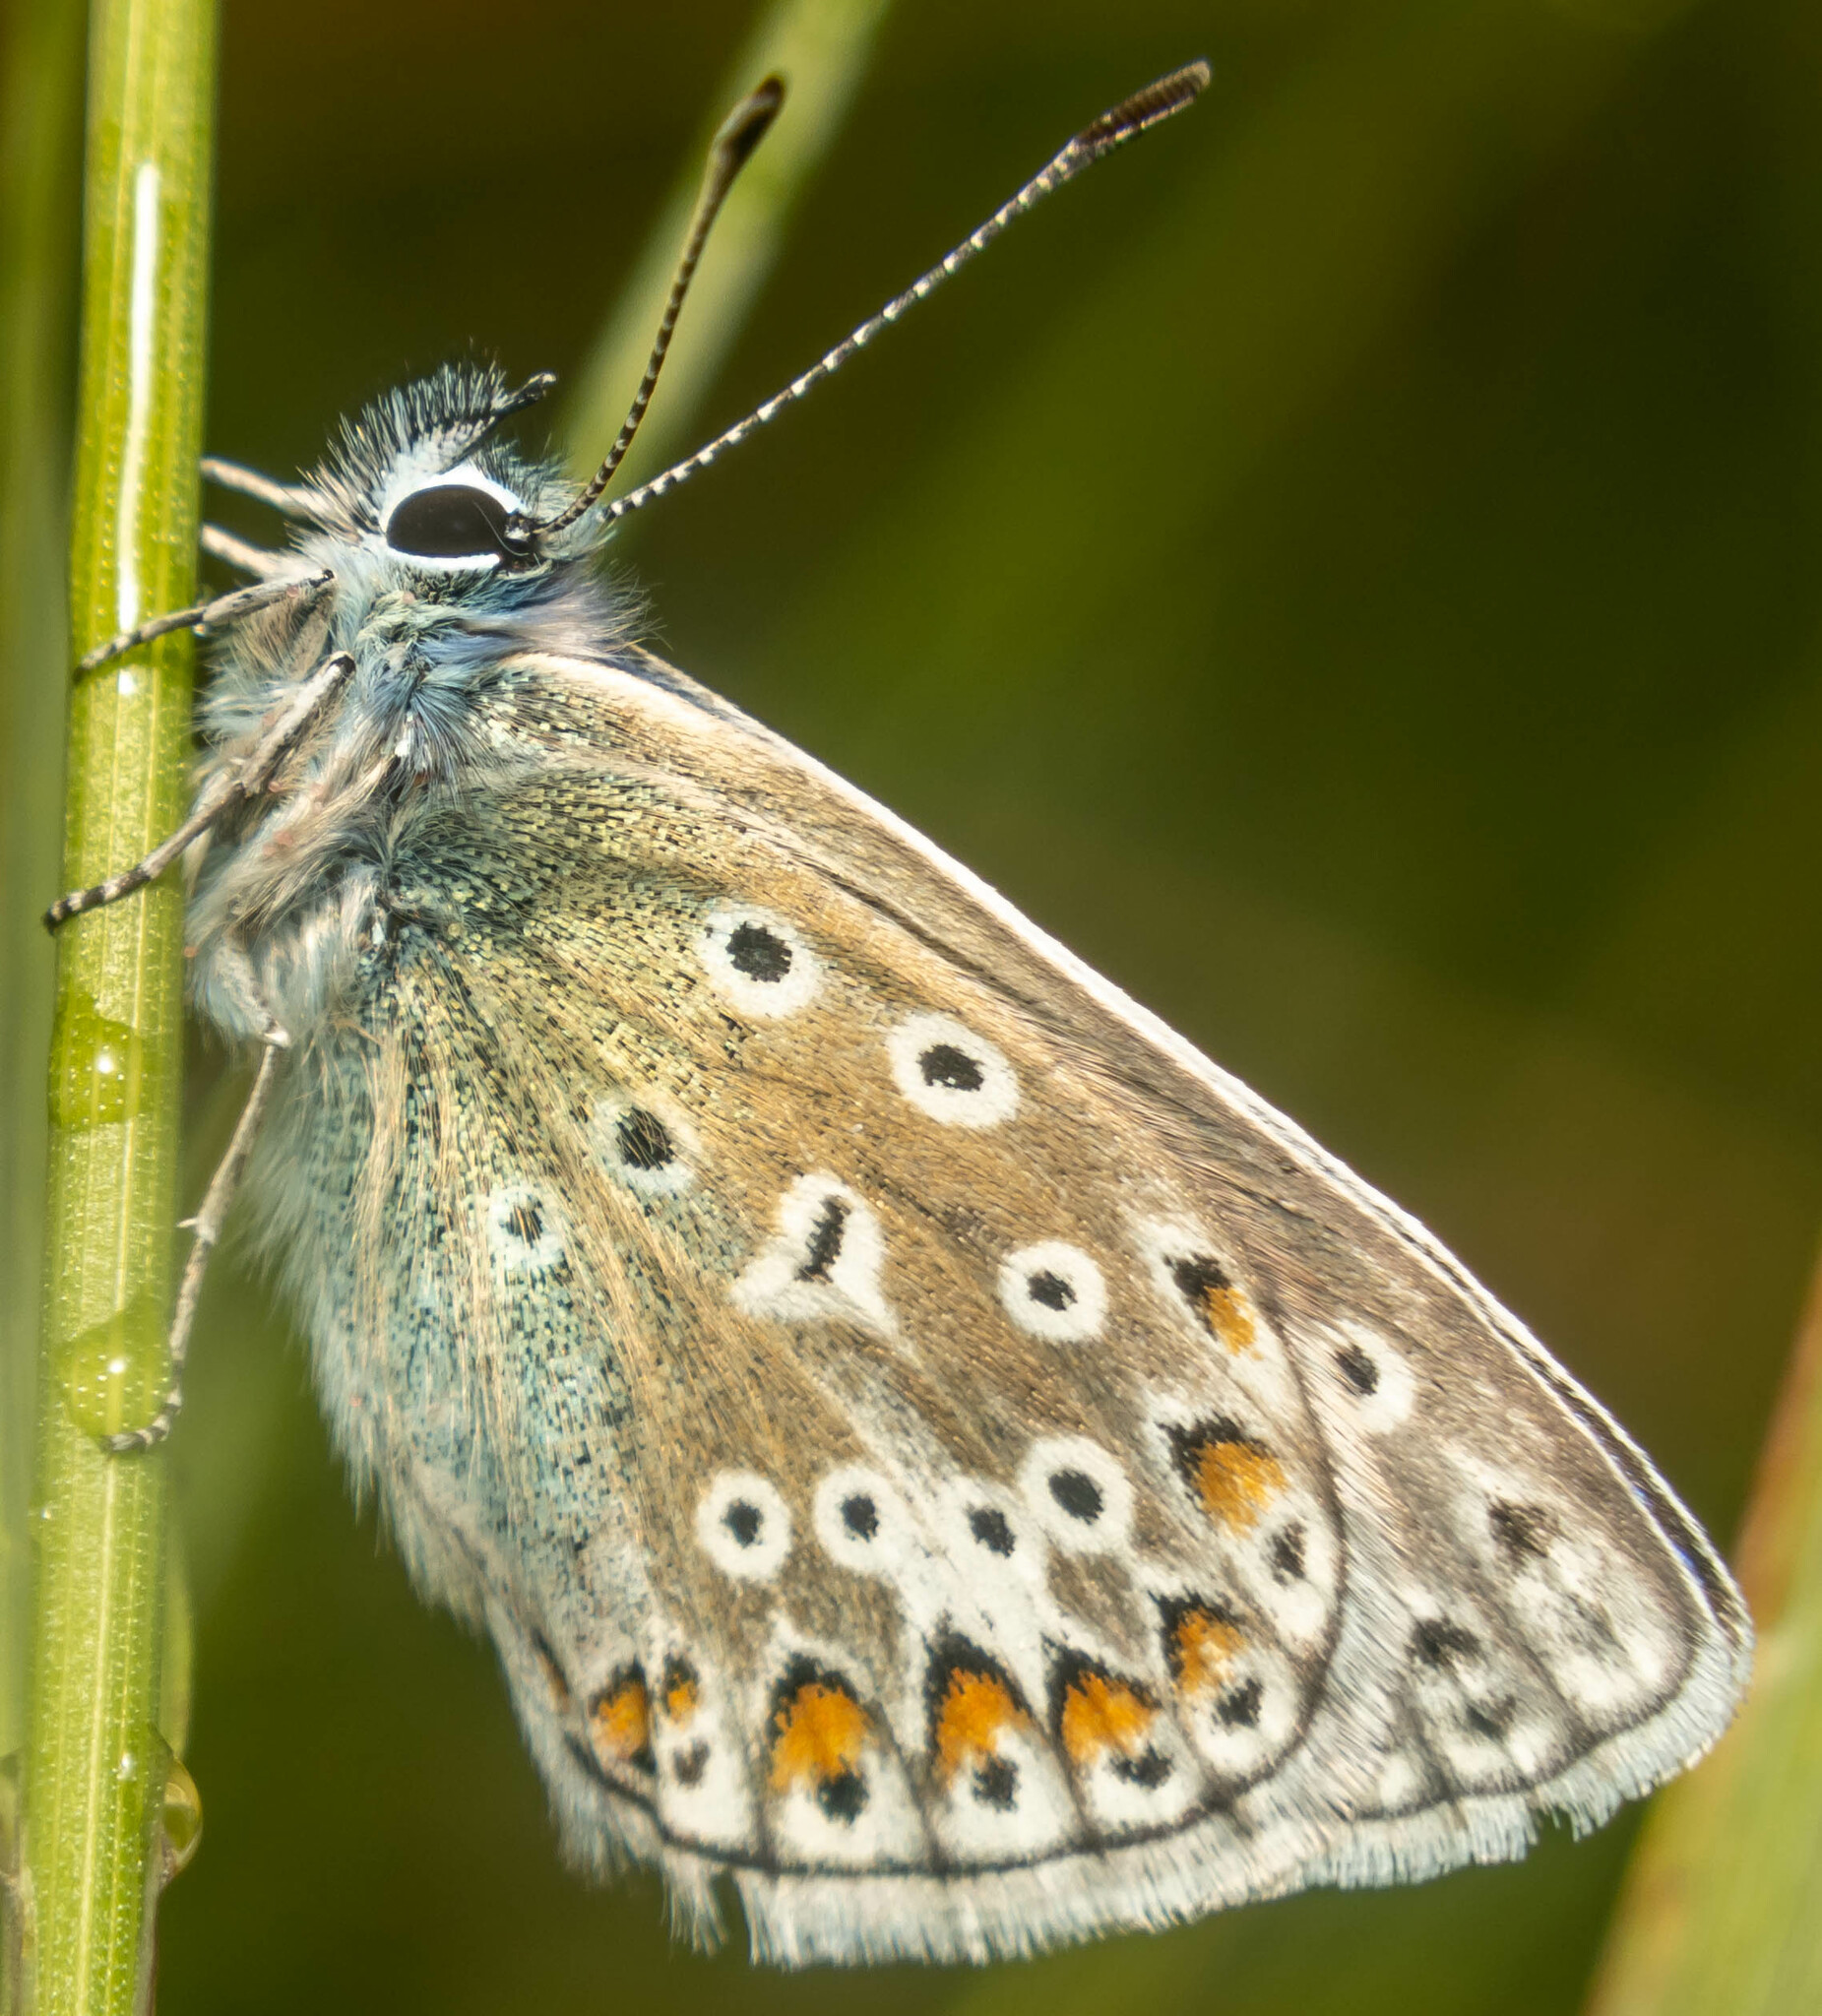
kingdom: Animalia
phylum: Arthropoda
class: Insecta
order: Lepidoptera
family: Lycaenidae
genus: Polyommatus
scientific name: Polyommatus icarus
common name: Common blue
